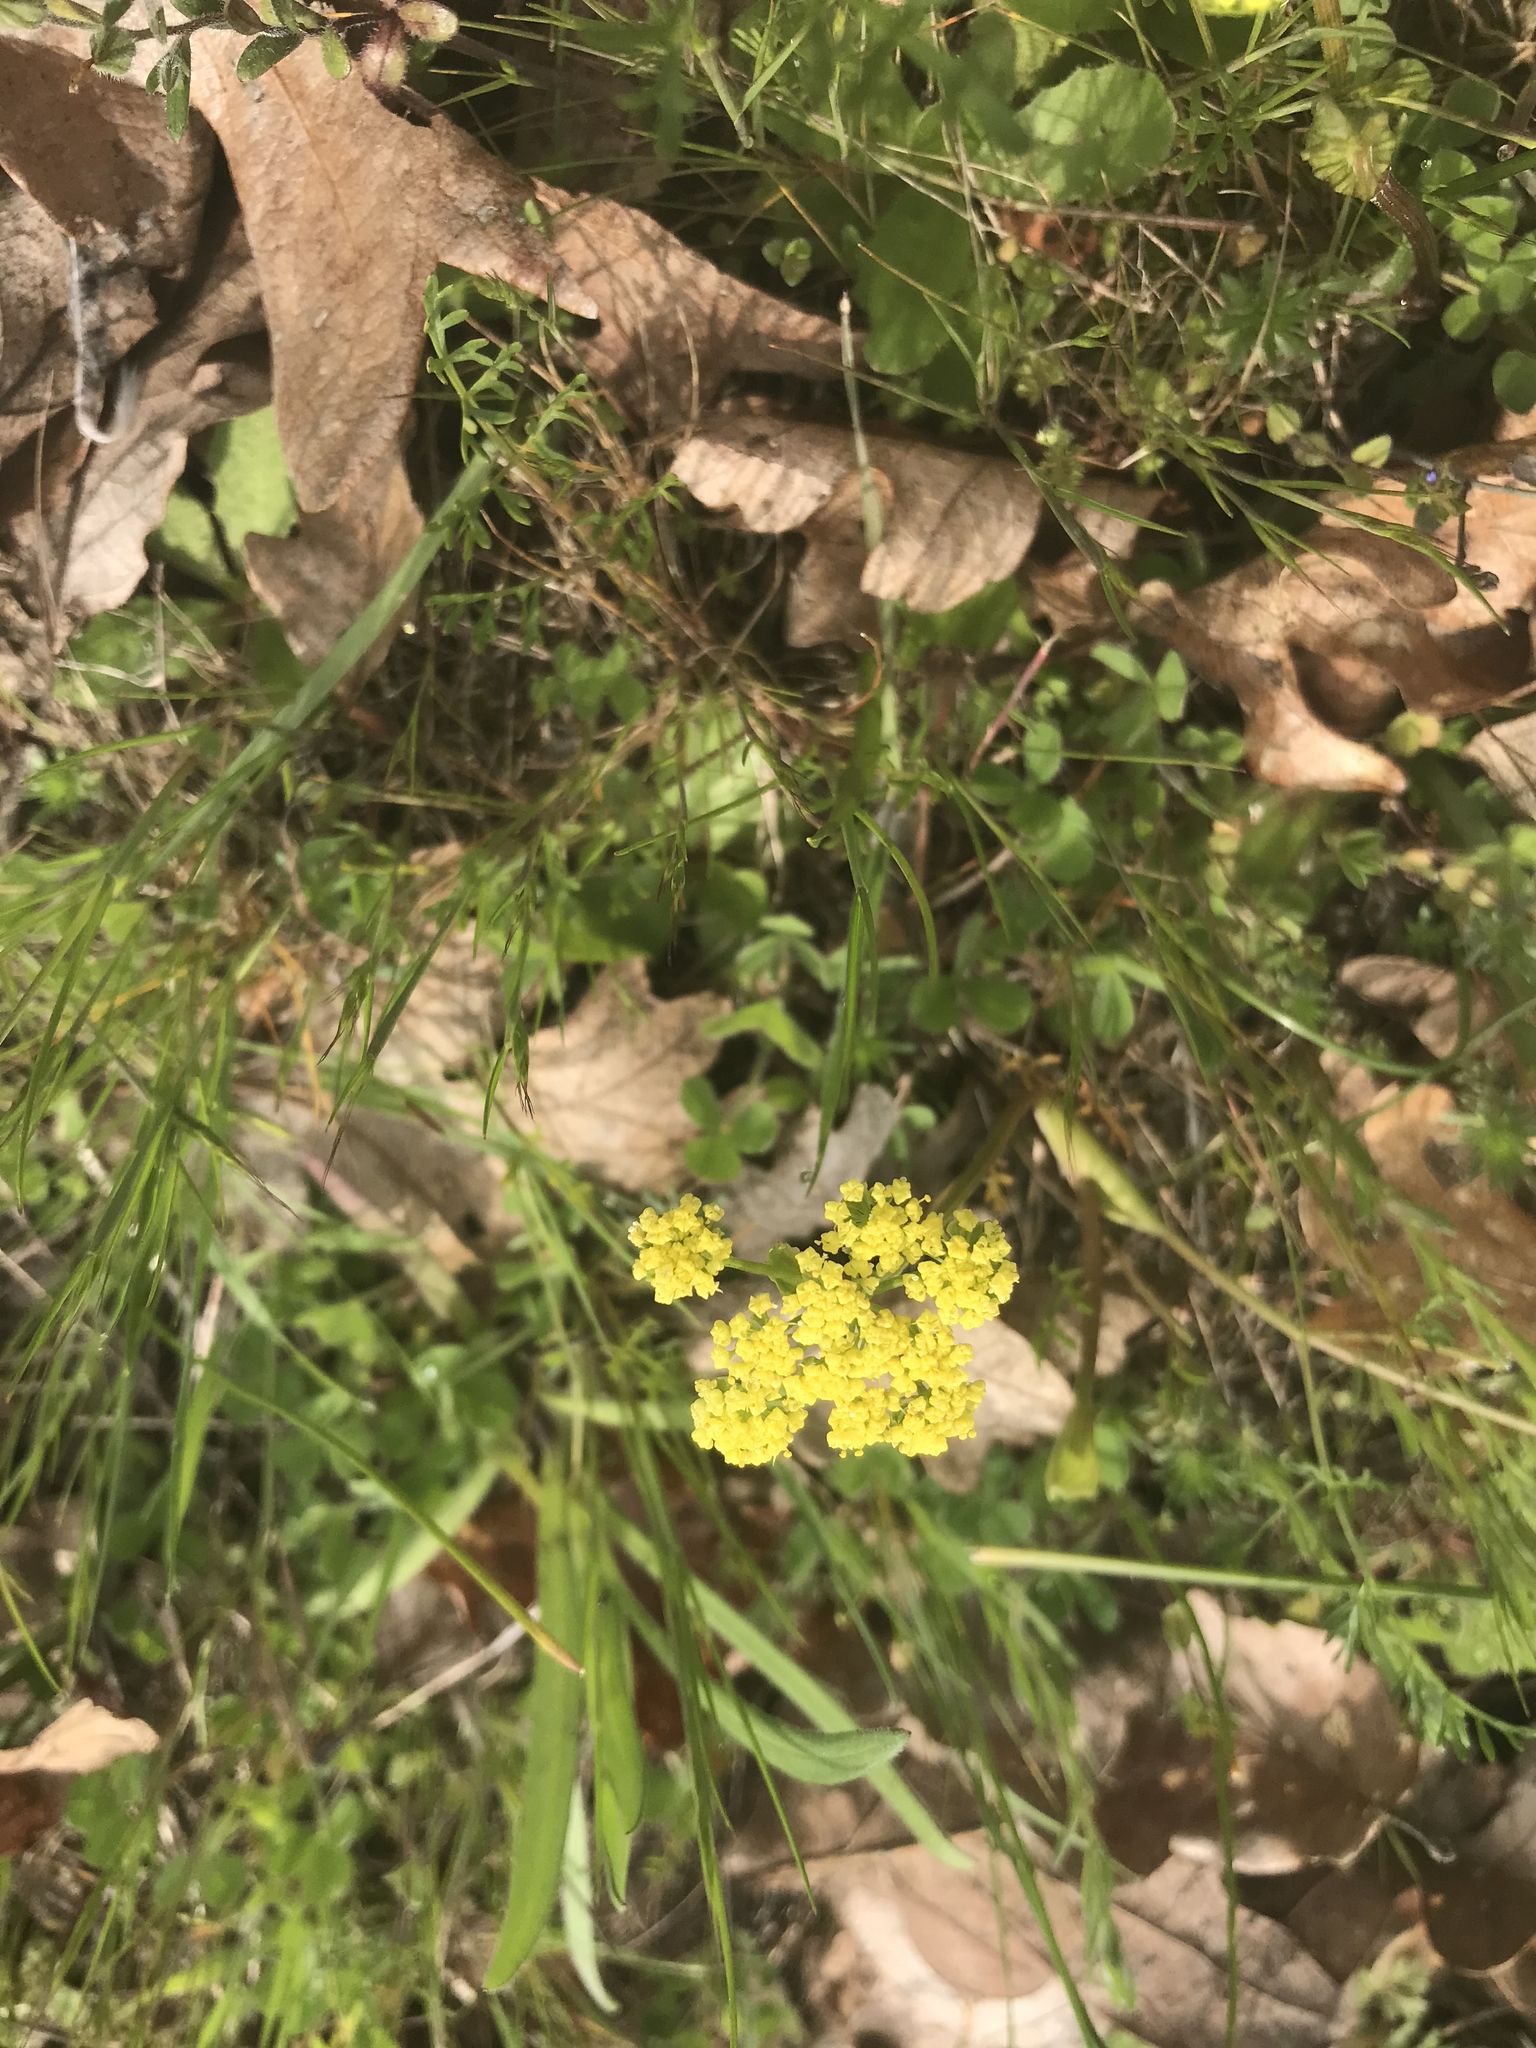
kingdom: Plantae
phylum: Tracheophyta
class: Magnoliopsida
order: Apiales
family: Apiaceae
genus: Lomatium
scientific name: Lomatium utriculatum
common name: Fine-leaf desert-parsley
